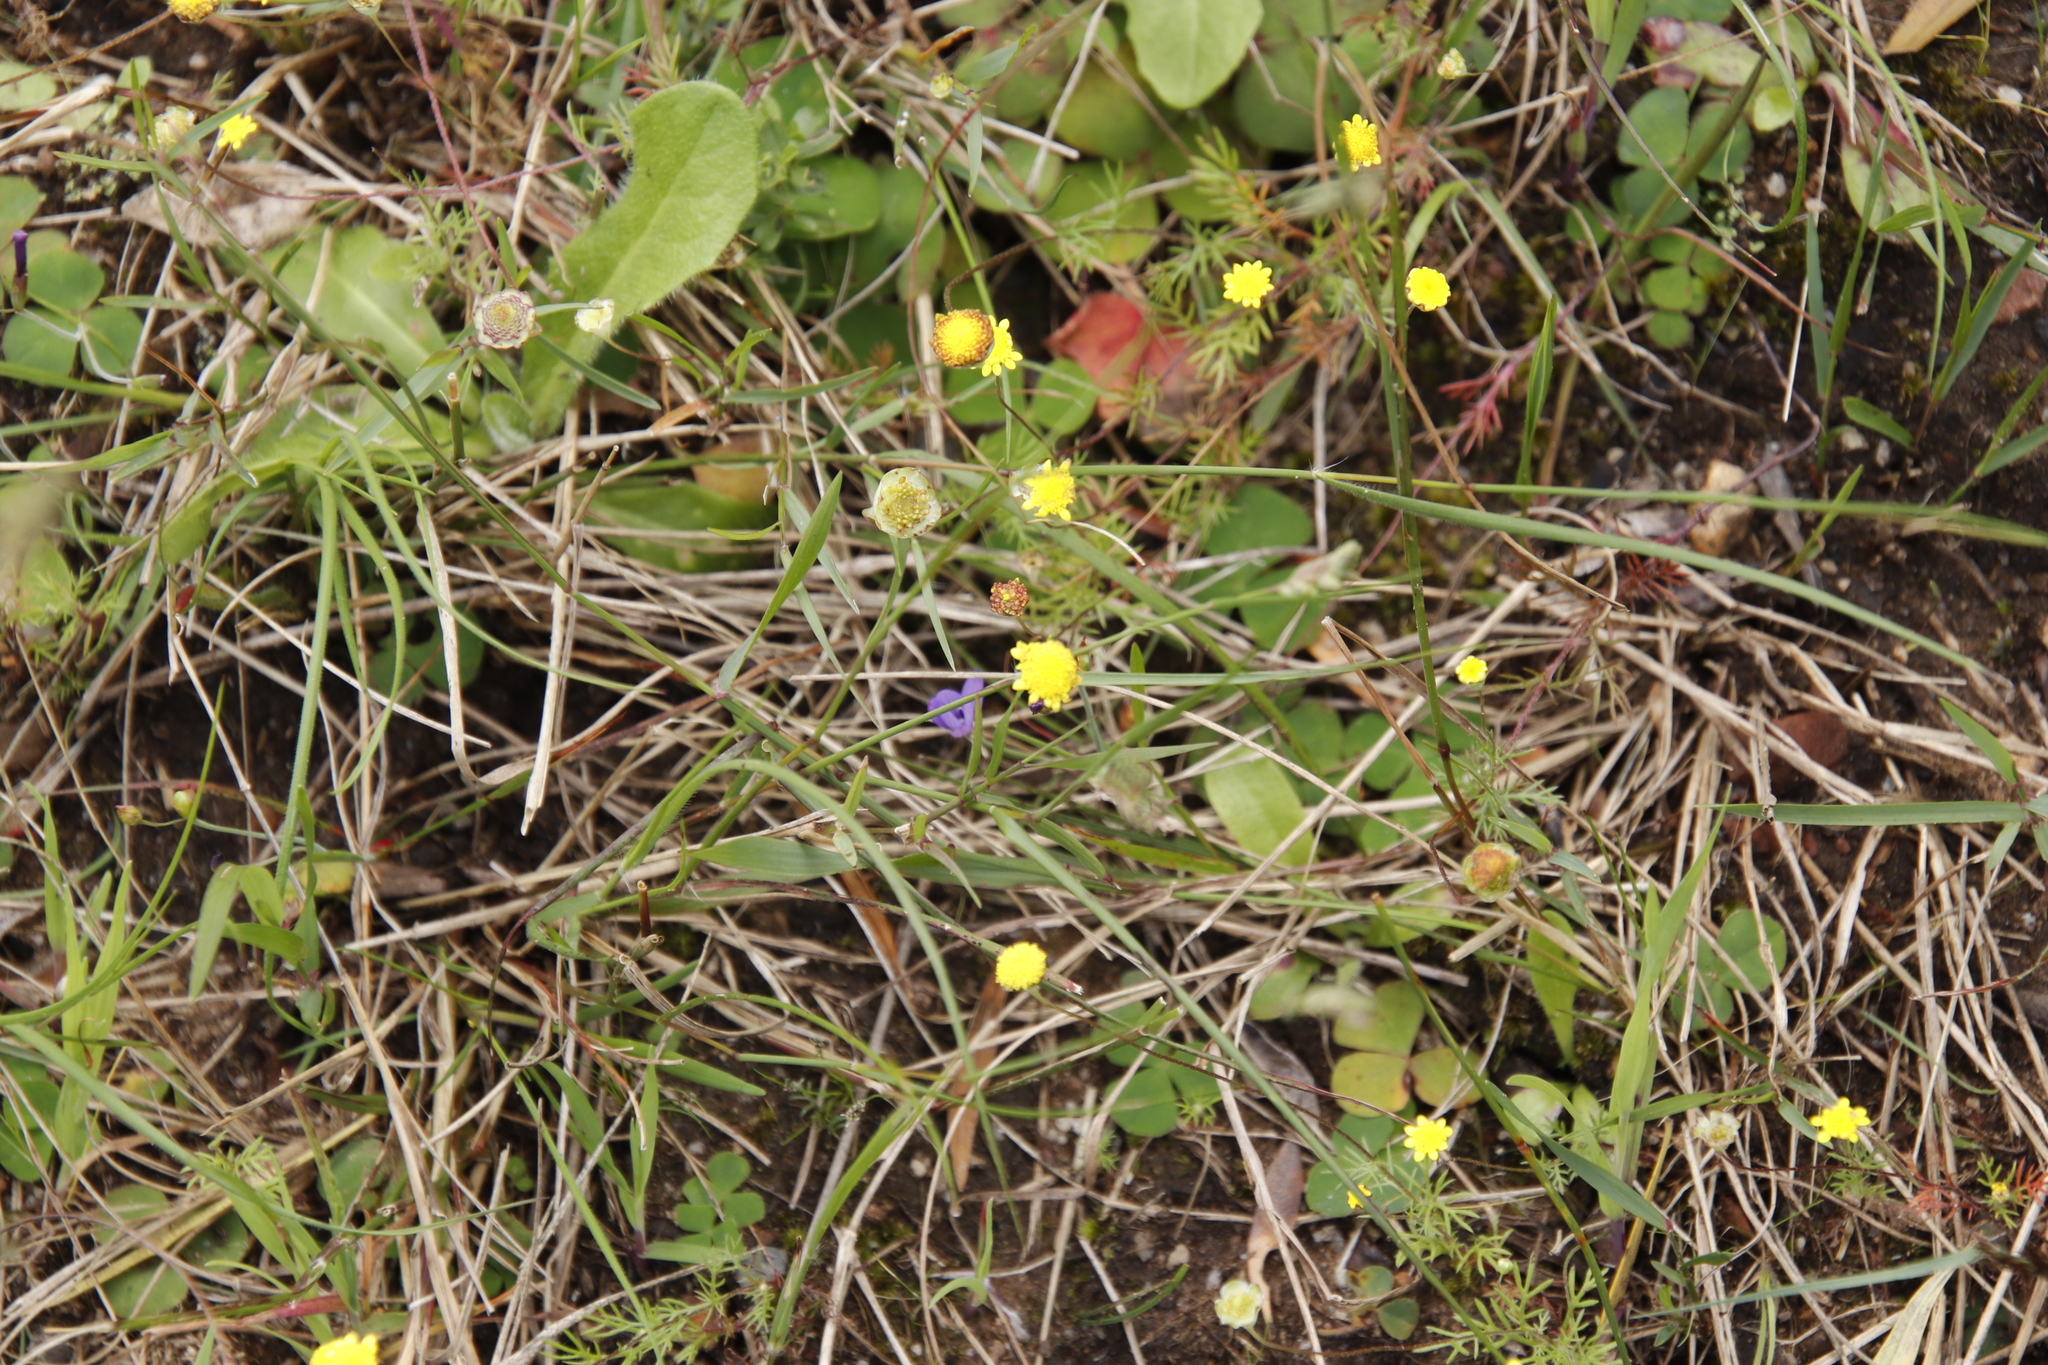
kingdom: Plantae
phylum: Tracheophyta
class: Magnoliopsida
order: Asterales
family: Asteraceae
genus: Cotula
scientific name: Cotula pruinosa
